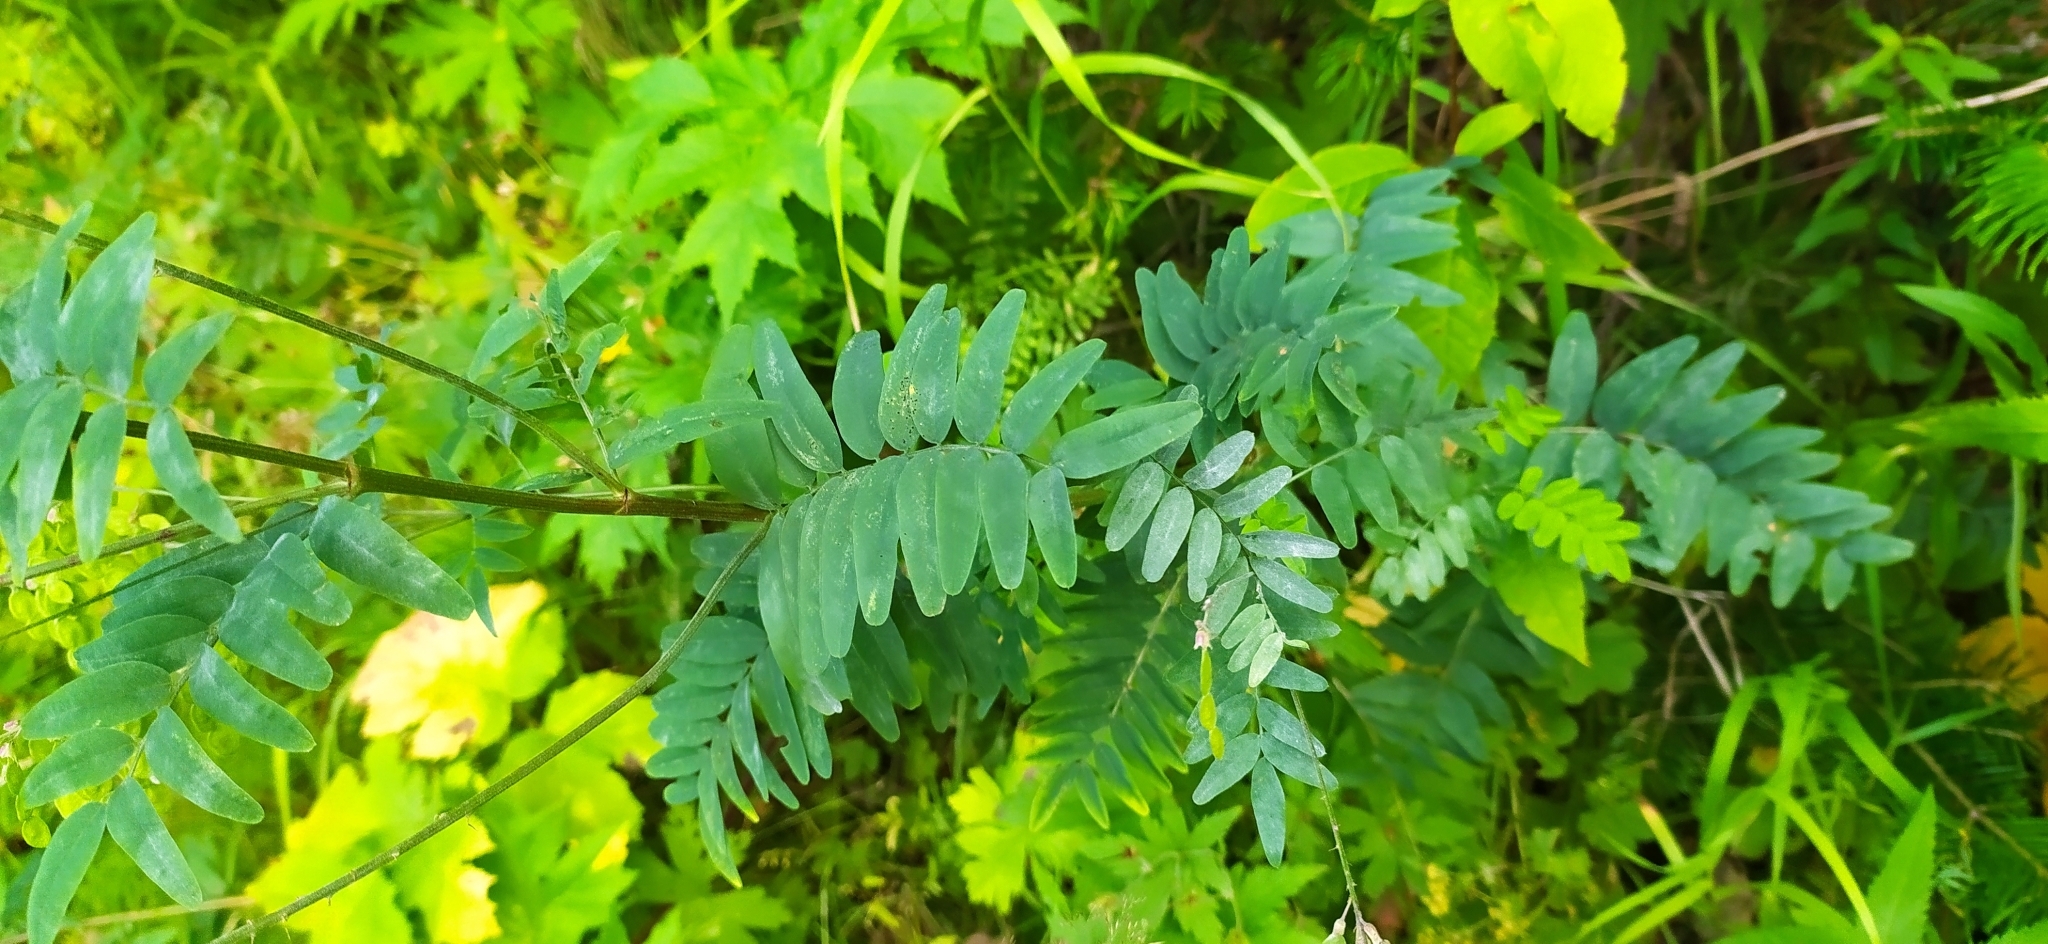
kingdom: Plantae
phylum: Tracheophyta
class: Magnoliopsida
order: Fabales
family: Fabaceae
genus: Hedysarum
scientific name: Hedysarum alpinum
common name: Alpine sweet-vetch
